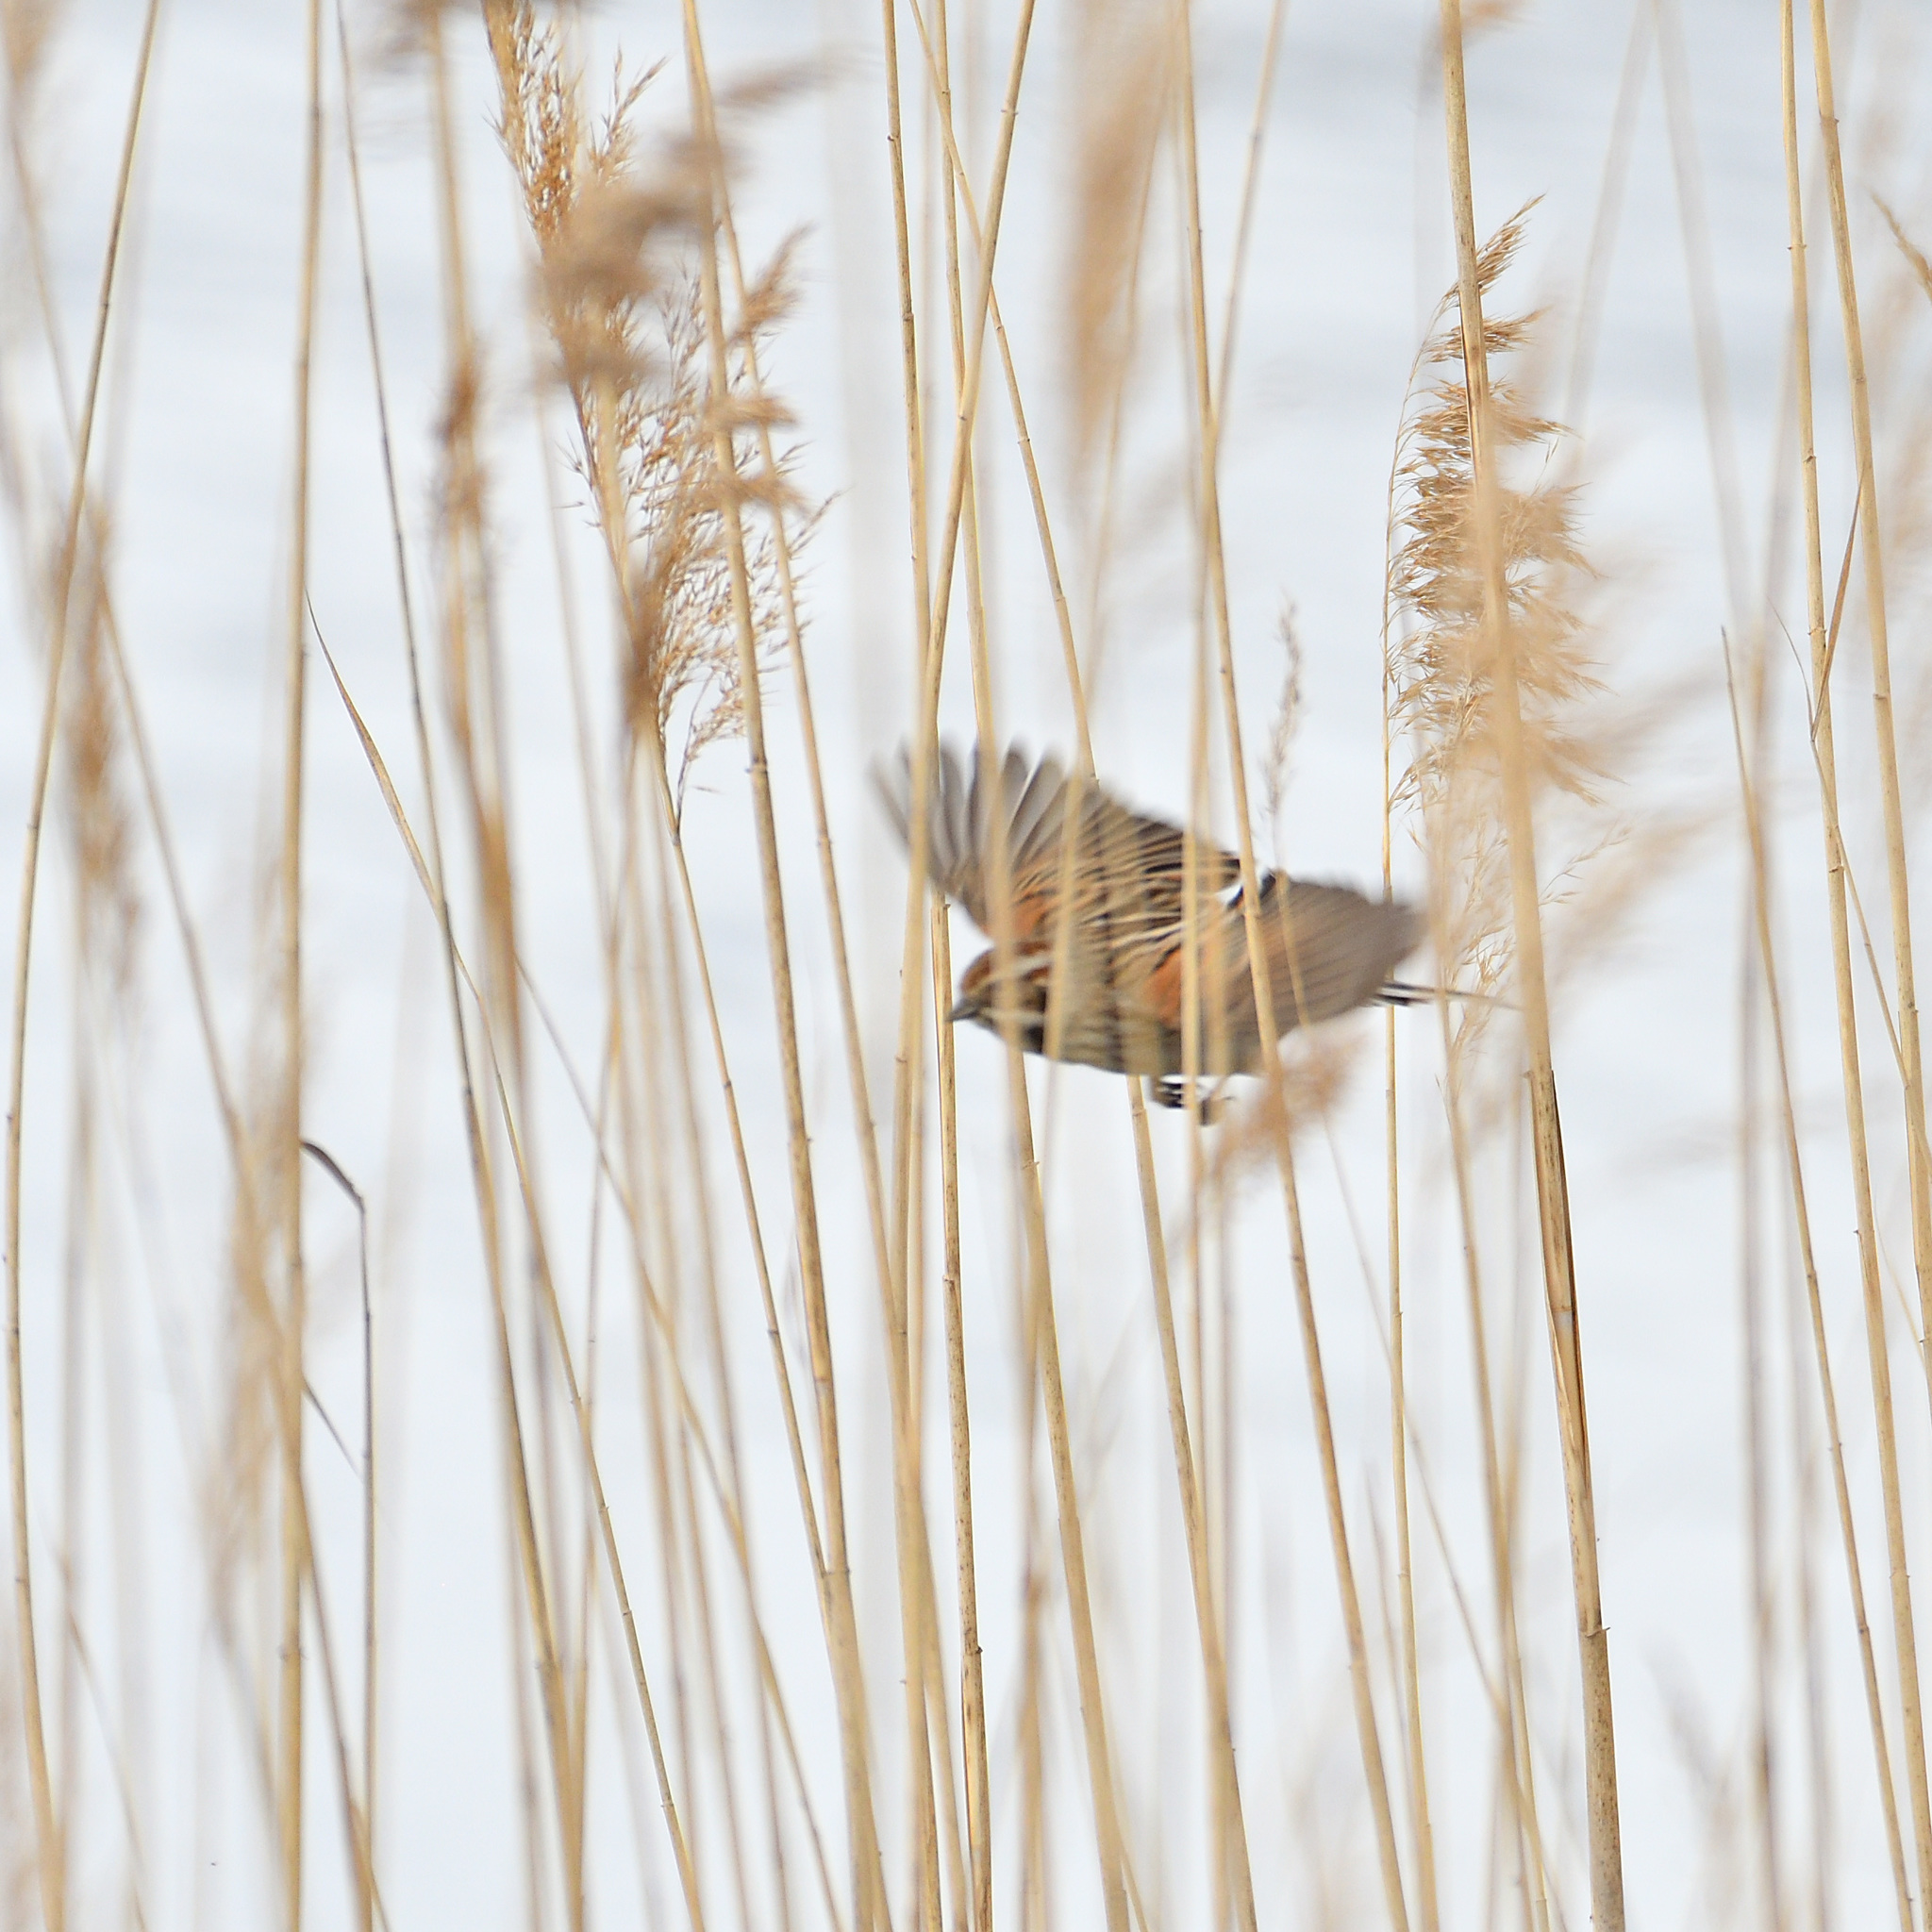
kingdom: Animalia
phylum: Chordata
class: Aves
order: Passeriformes
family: Emberizidae
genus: Emberiza
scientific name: Emberiza schoeniclus
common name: Reed bunting
